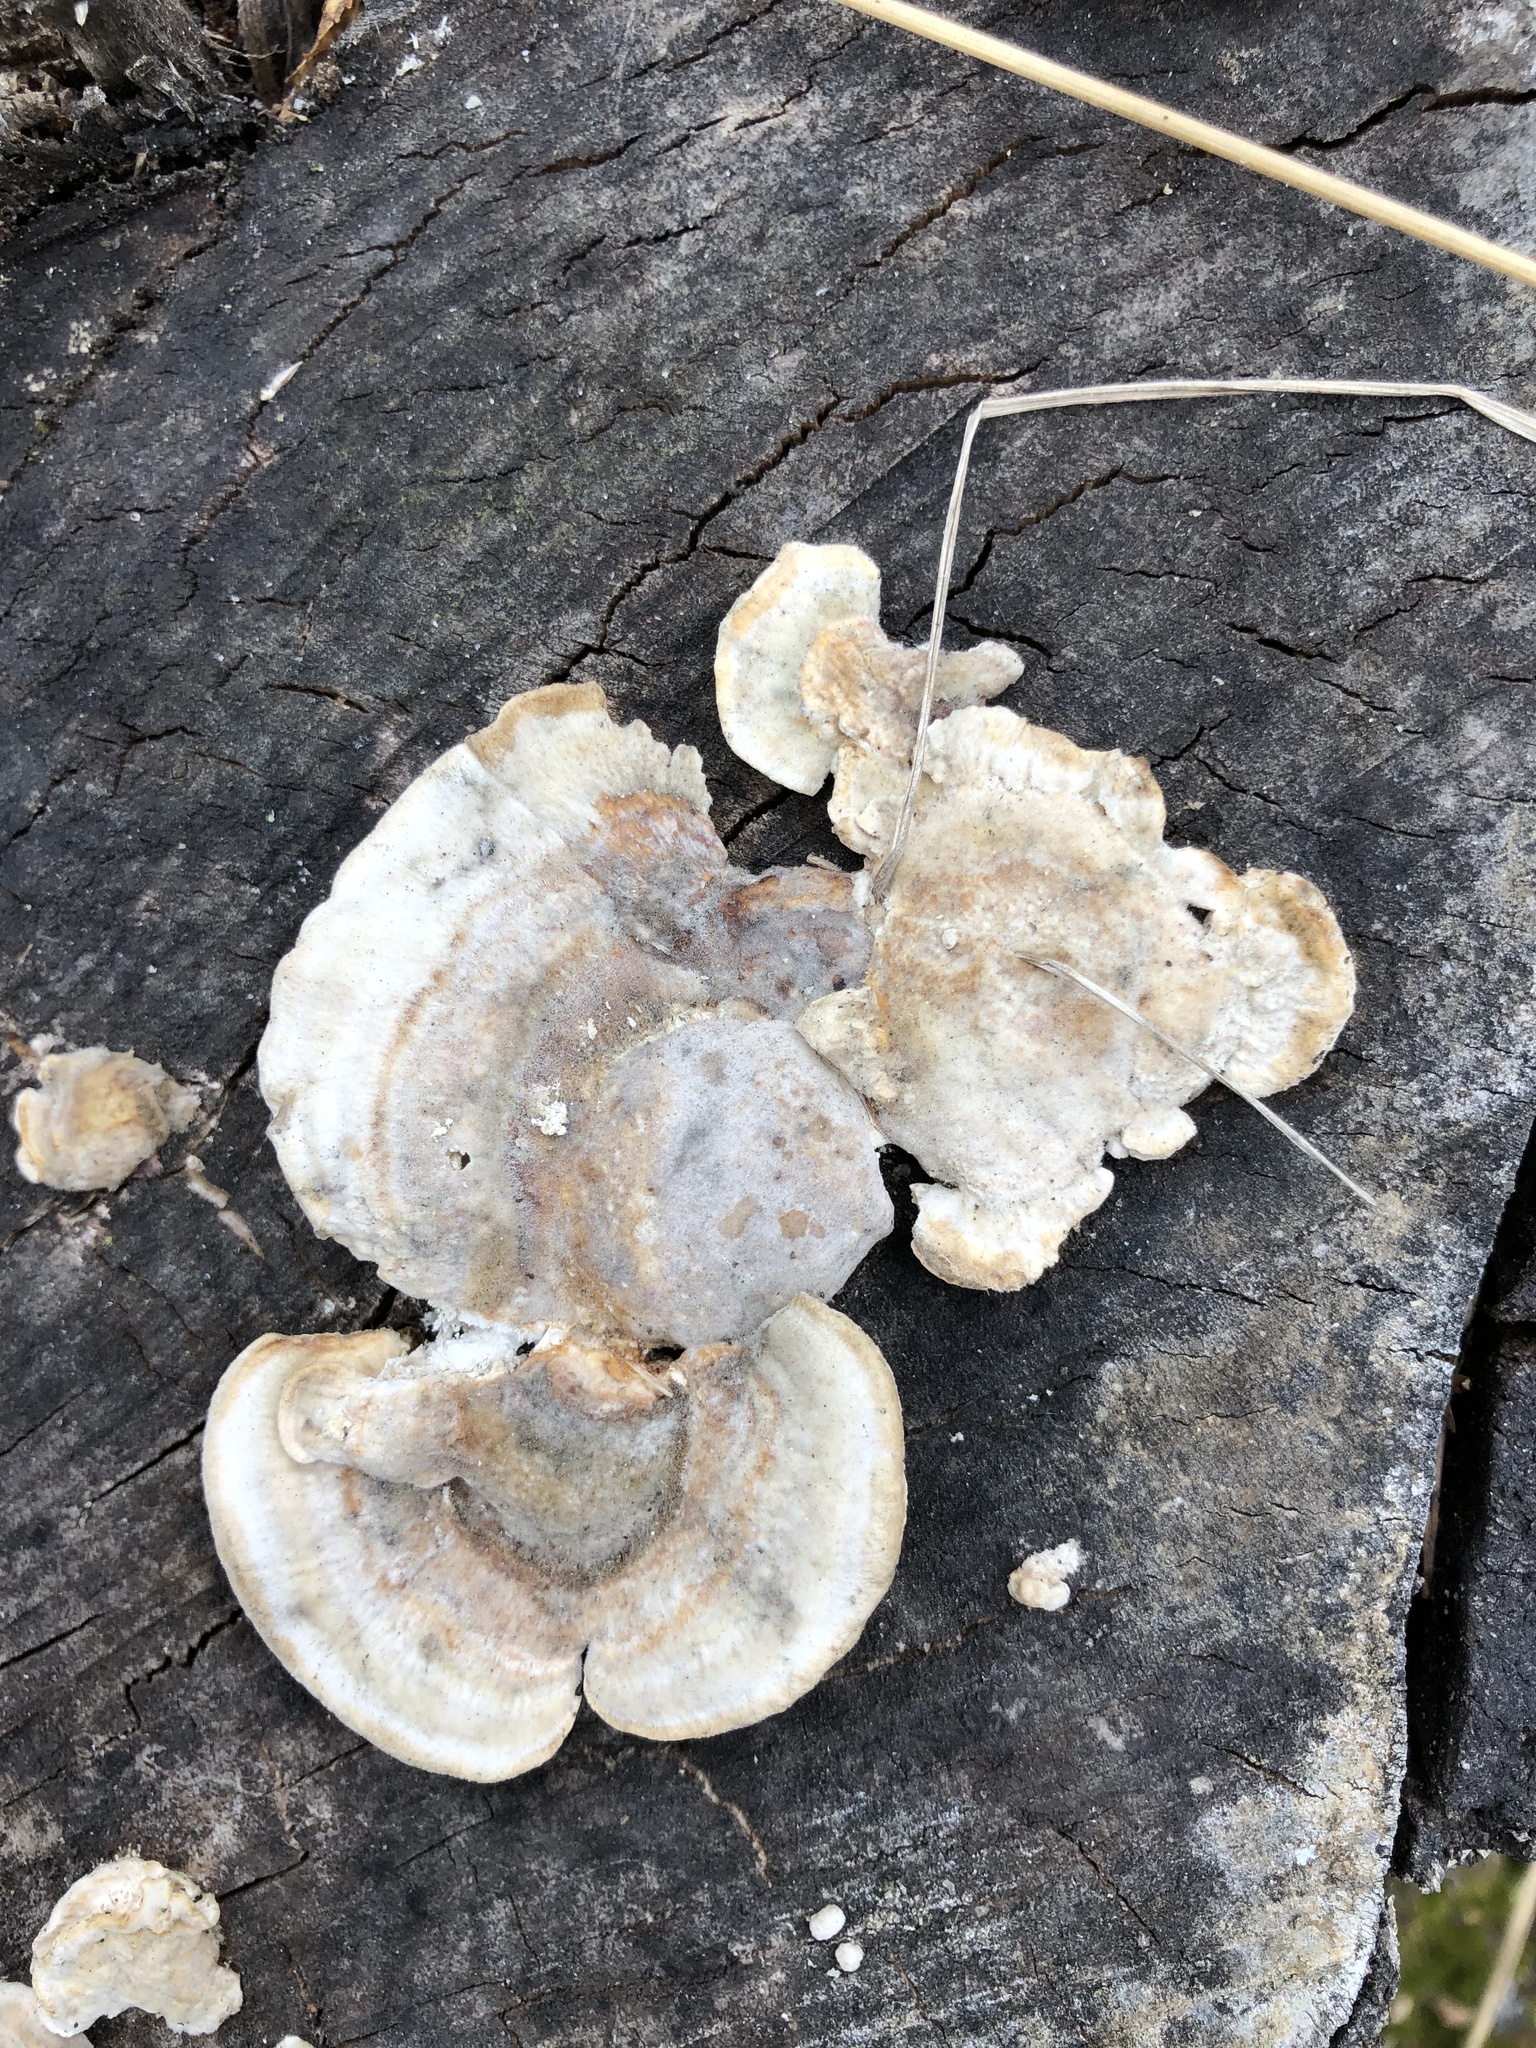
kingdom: Fungi
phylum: Basidiomycota
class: Agaricomycetes
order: Polyporales
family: Polyporaceae
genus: Trametes
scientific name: Trametes ochracea
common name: Ochre bracket
